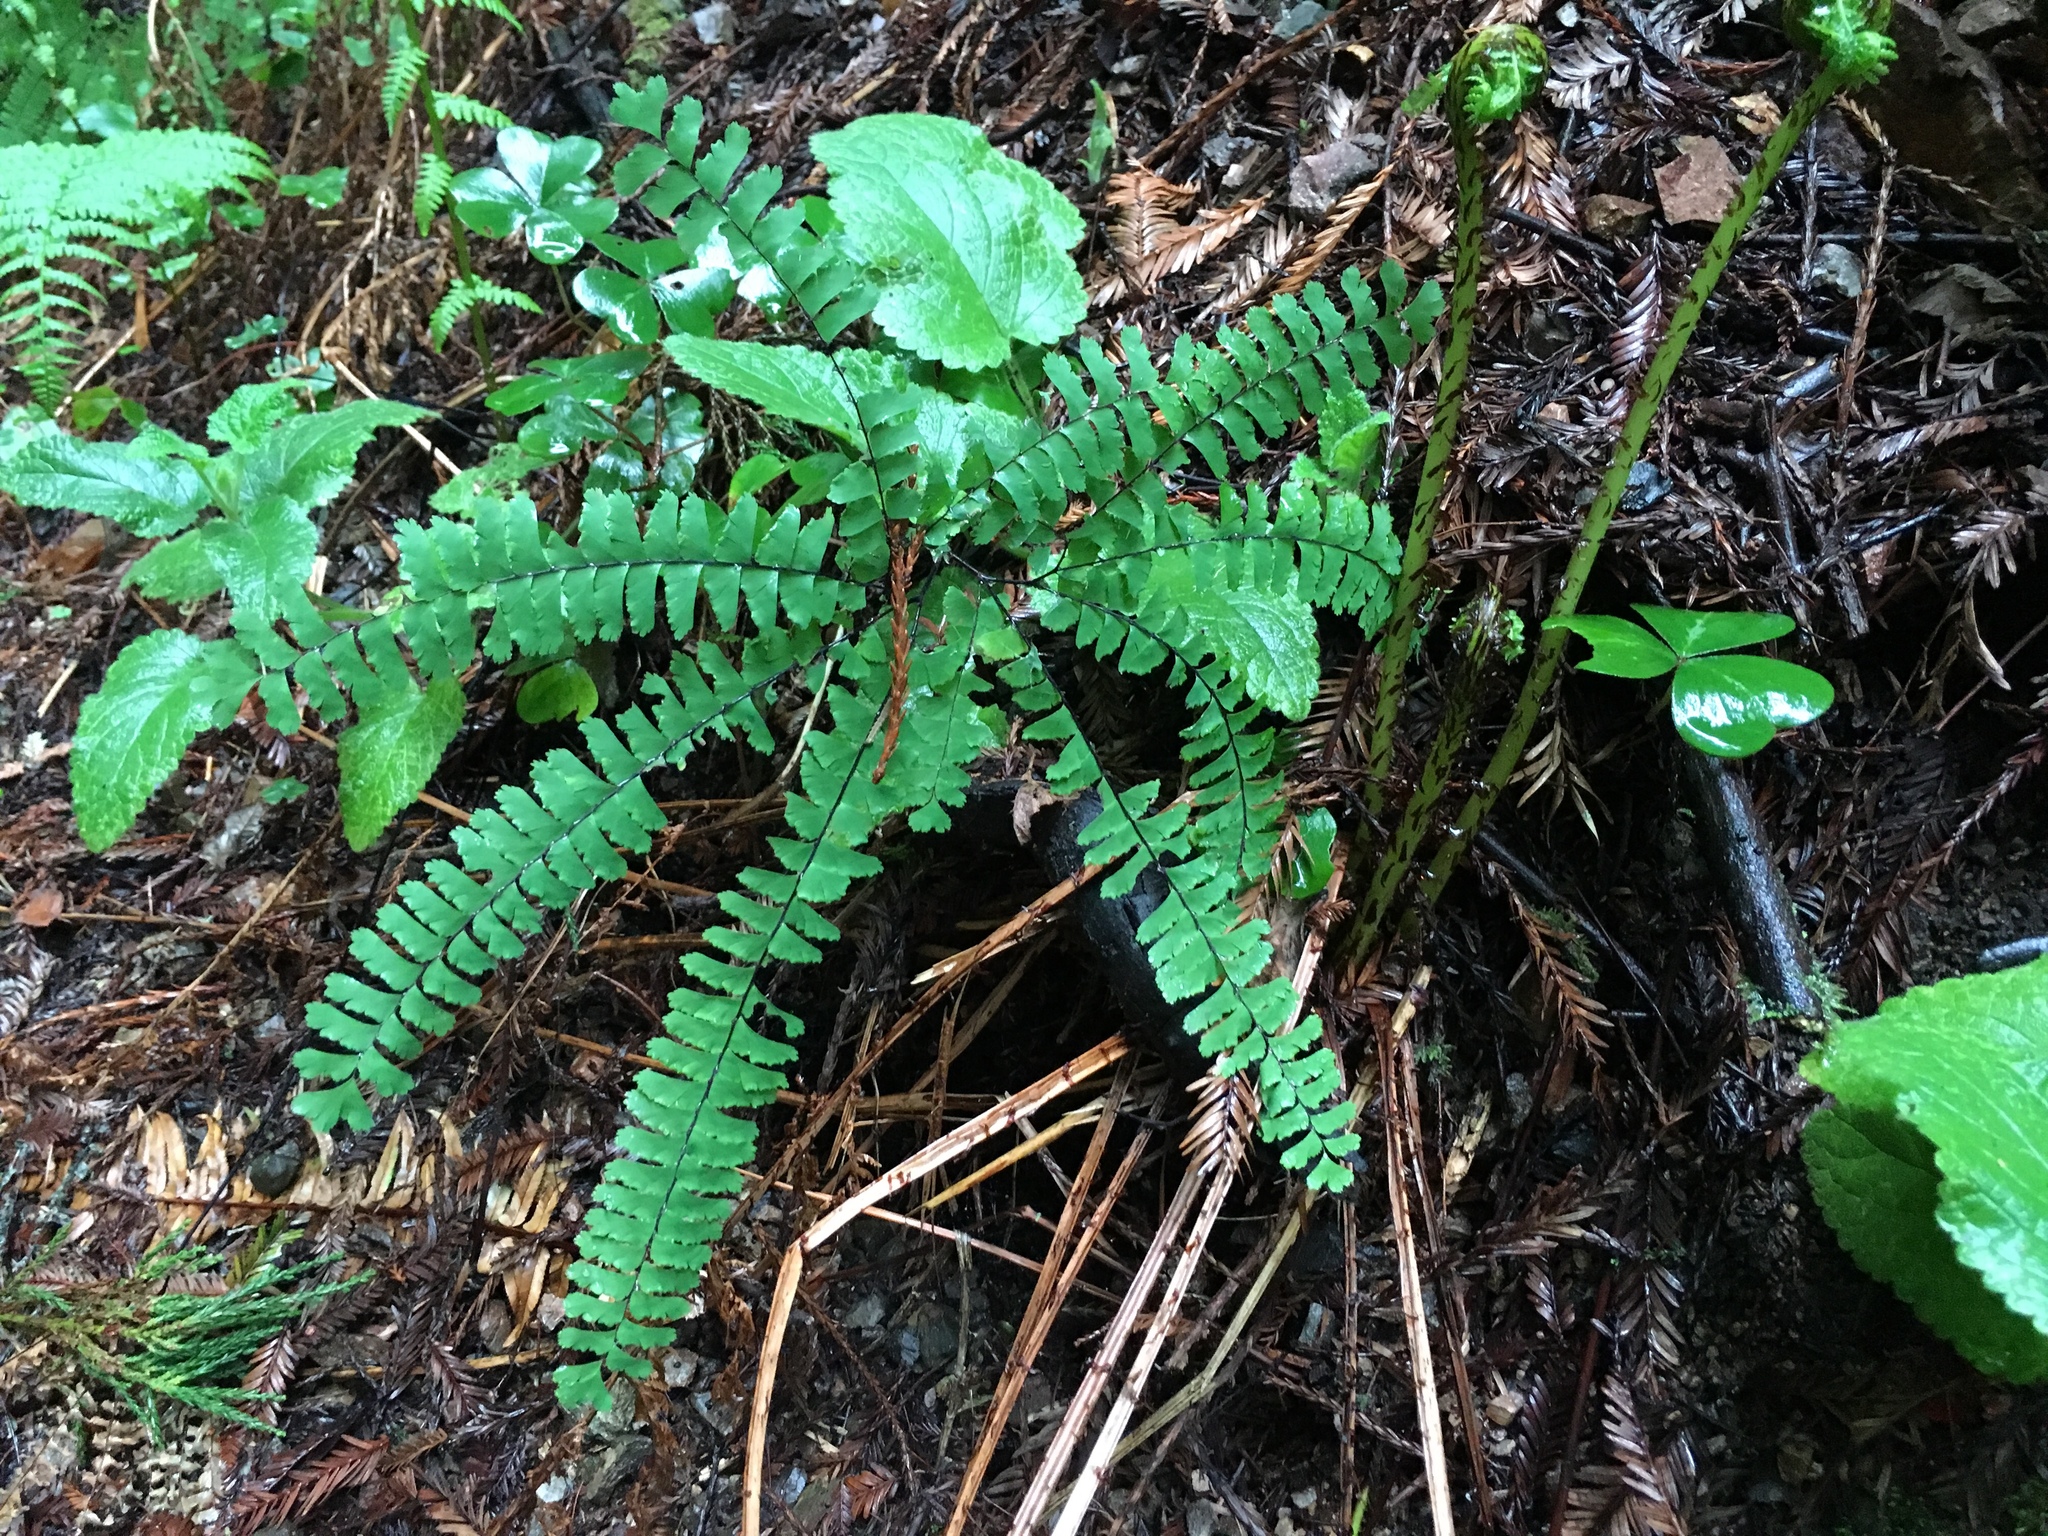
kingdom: Plantae
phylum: Tracheophyta
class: Polypodiopsida
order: Polypodiales
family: Pteridaceae
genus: Adiantum
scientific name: Adiantum aleuticum
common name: Aleutian maidenhair fern
